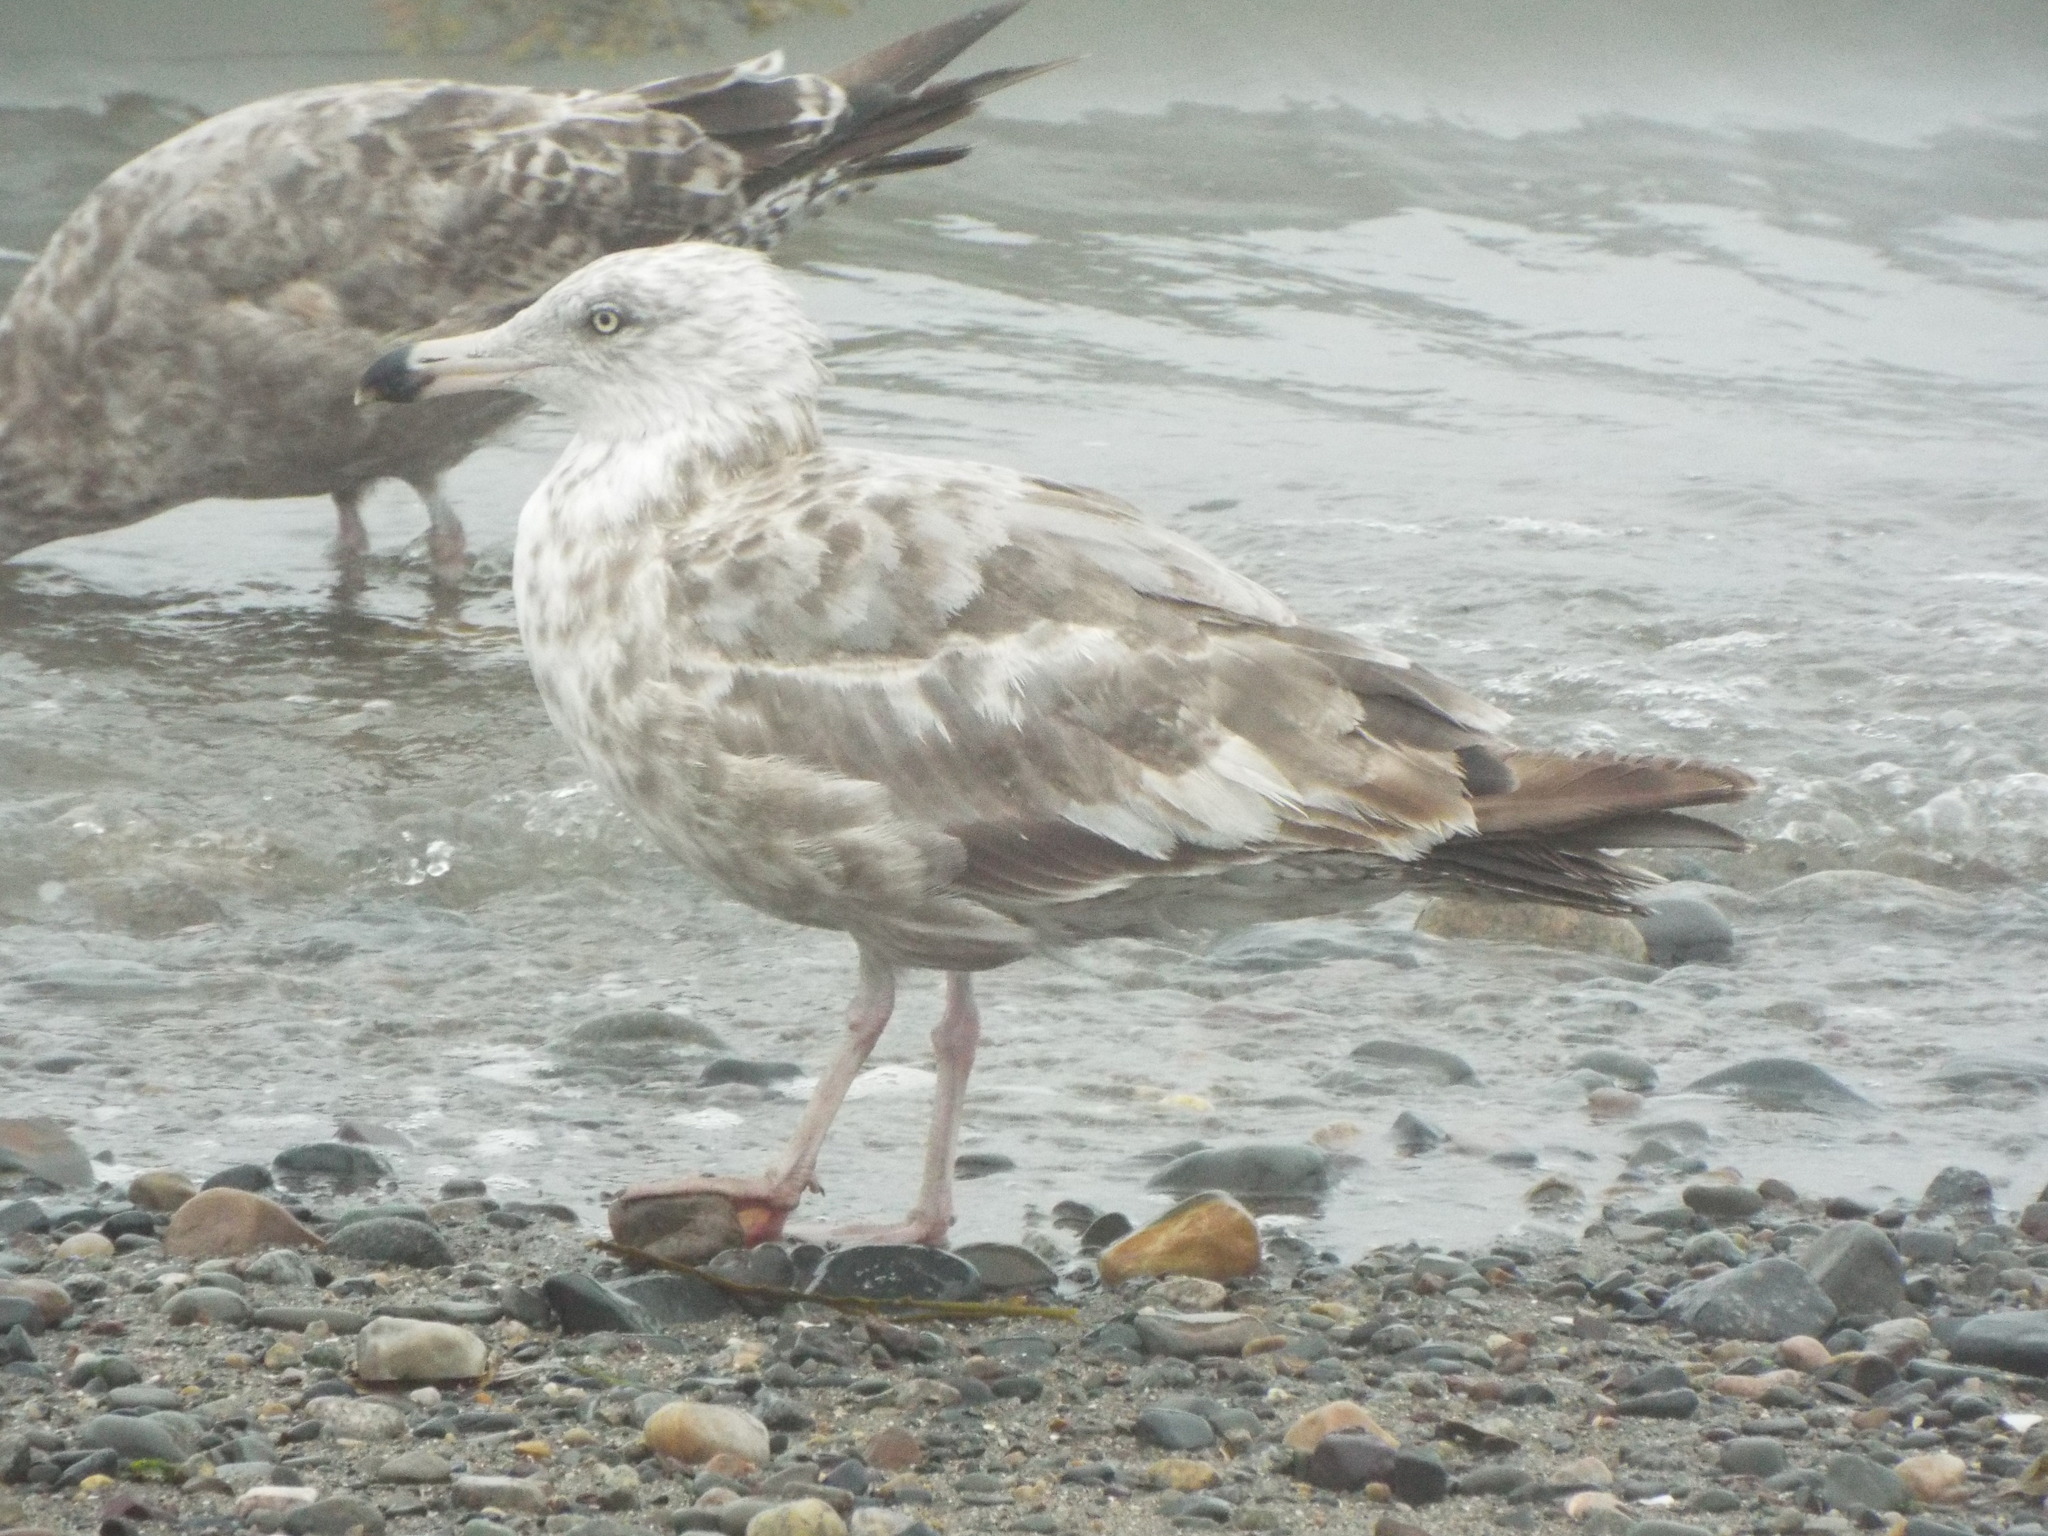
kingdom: Animalia
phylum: Chordata
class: Aves
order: Charadriiformes
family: Laridae
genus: Larus
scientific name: Larus argentatus
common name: Herring gull
